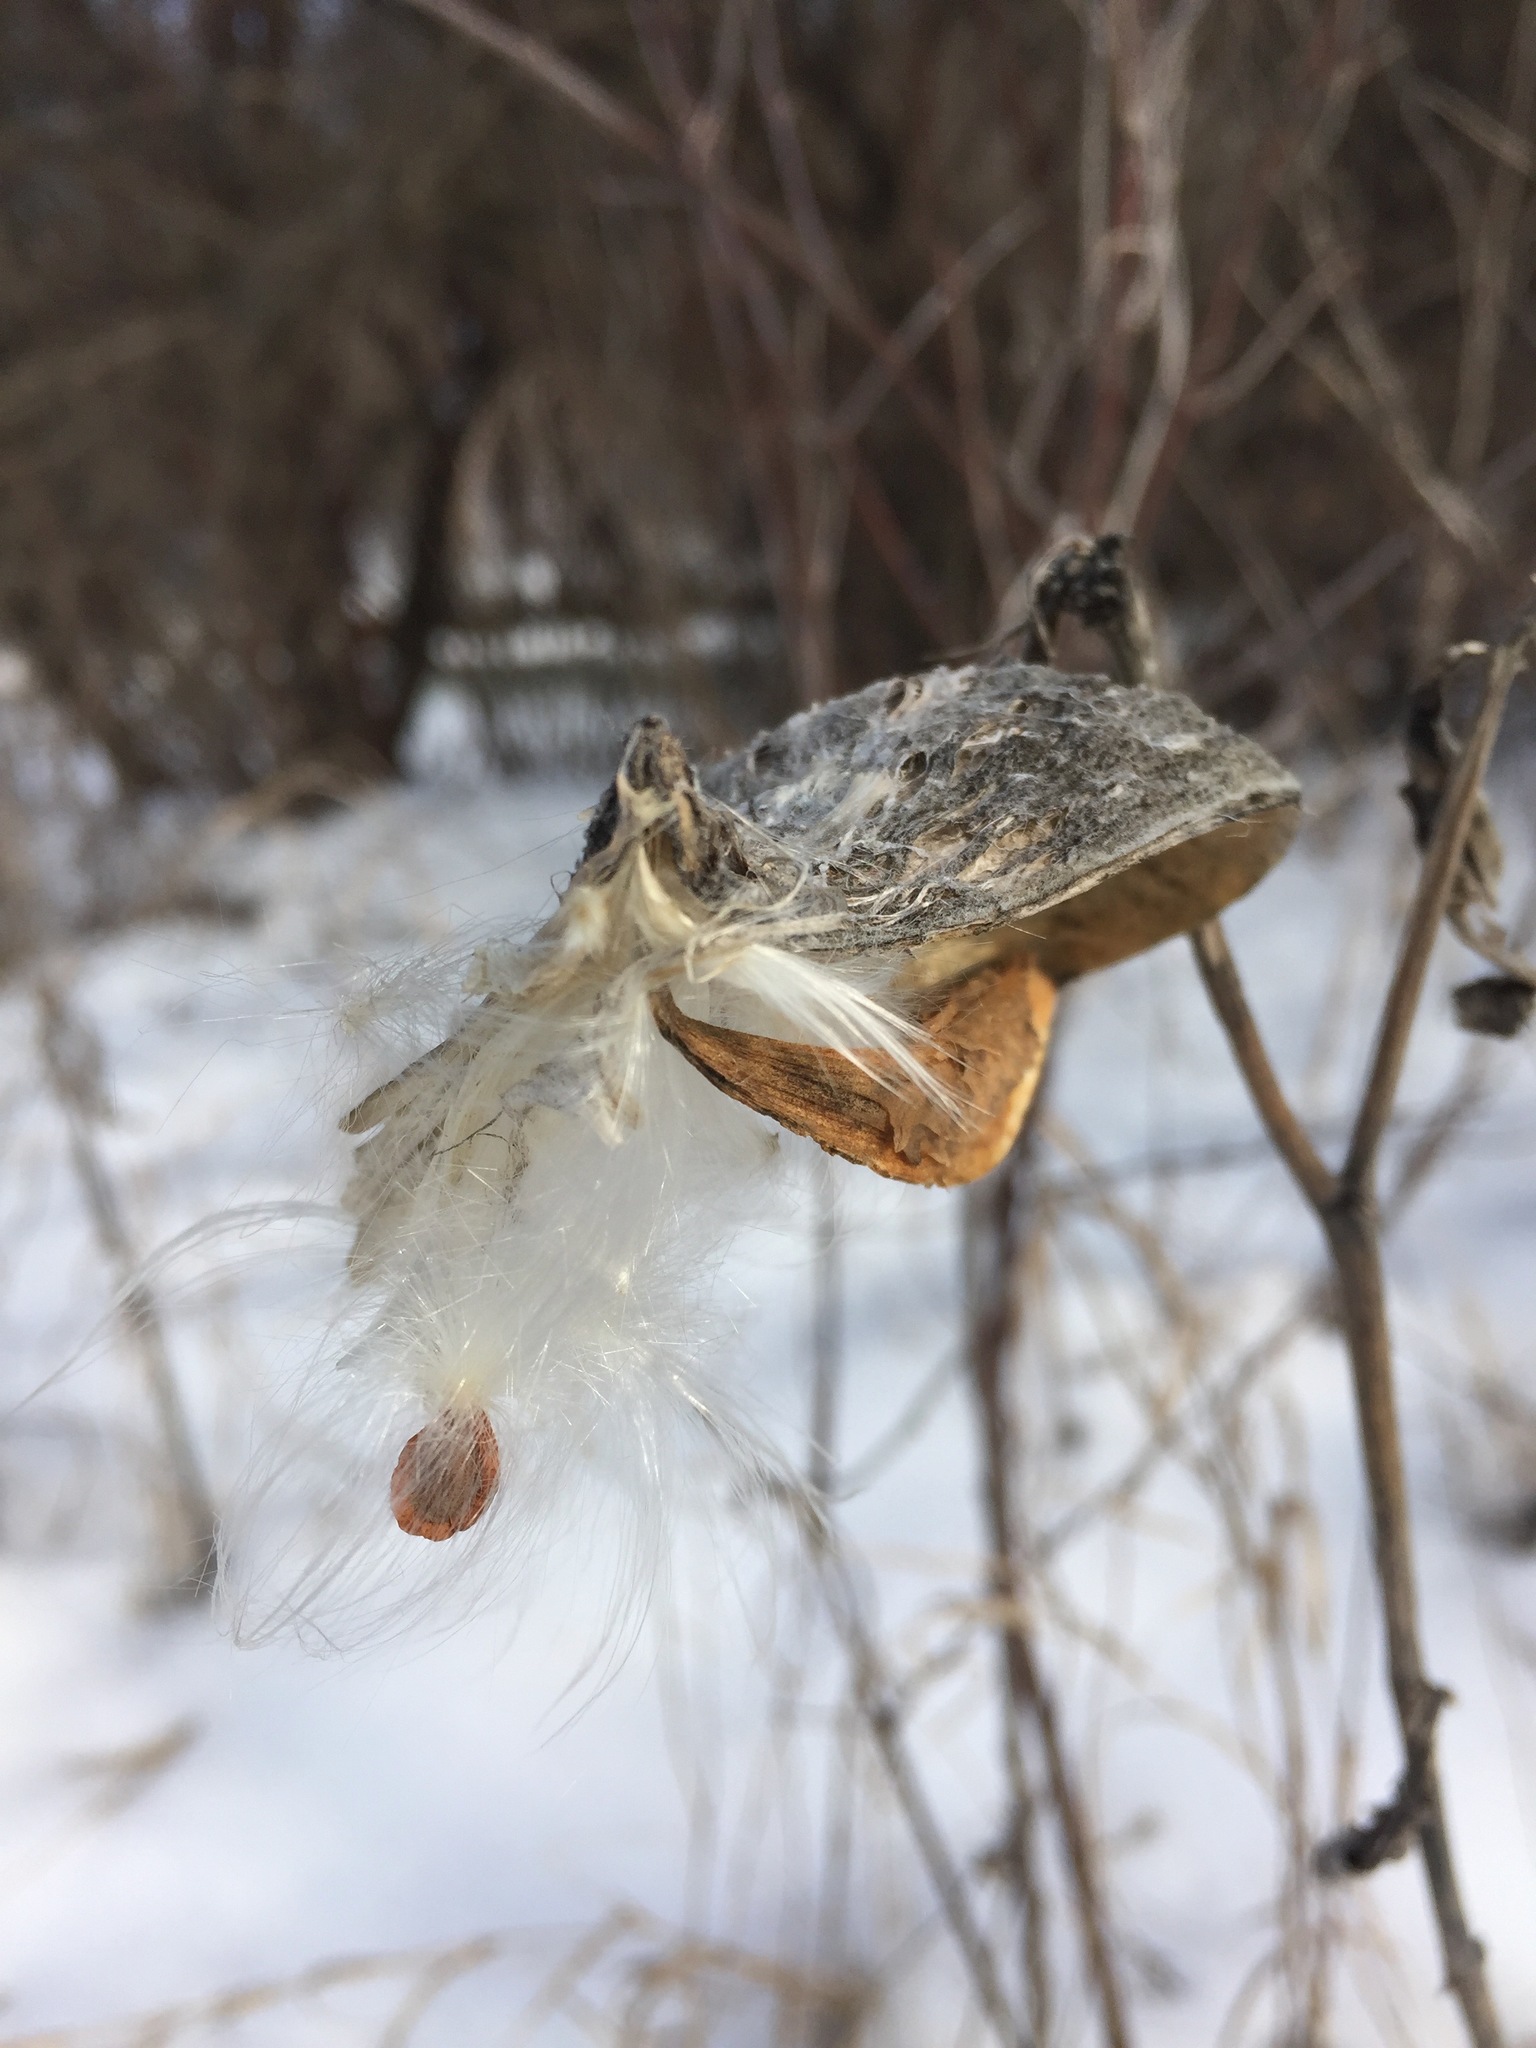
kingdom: Plantae
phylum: Tracheophyta
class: Magnoliopsida
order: Gentianales
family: Apocynaceae
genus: Asclepias
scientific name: Asclepias syriaca
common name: Common milkweed
